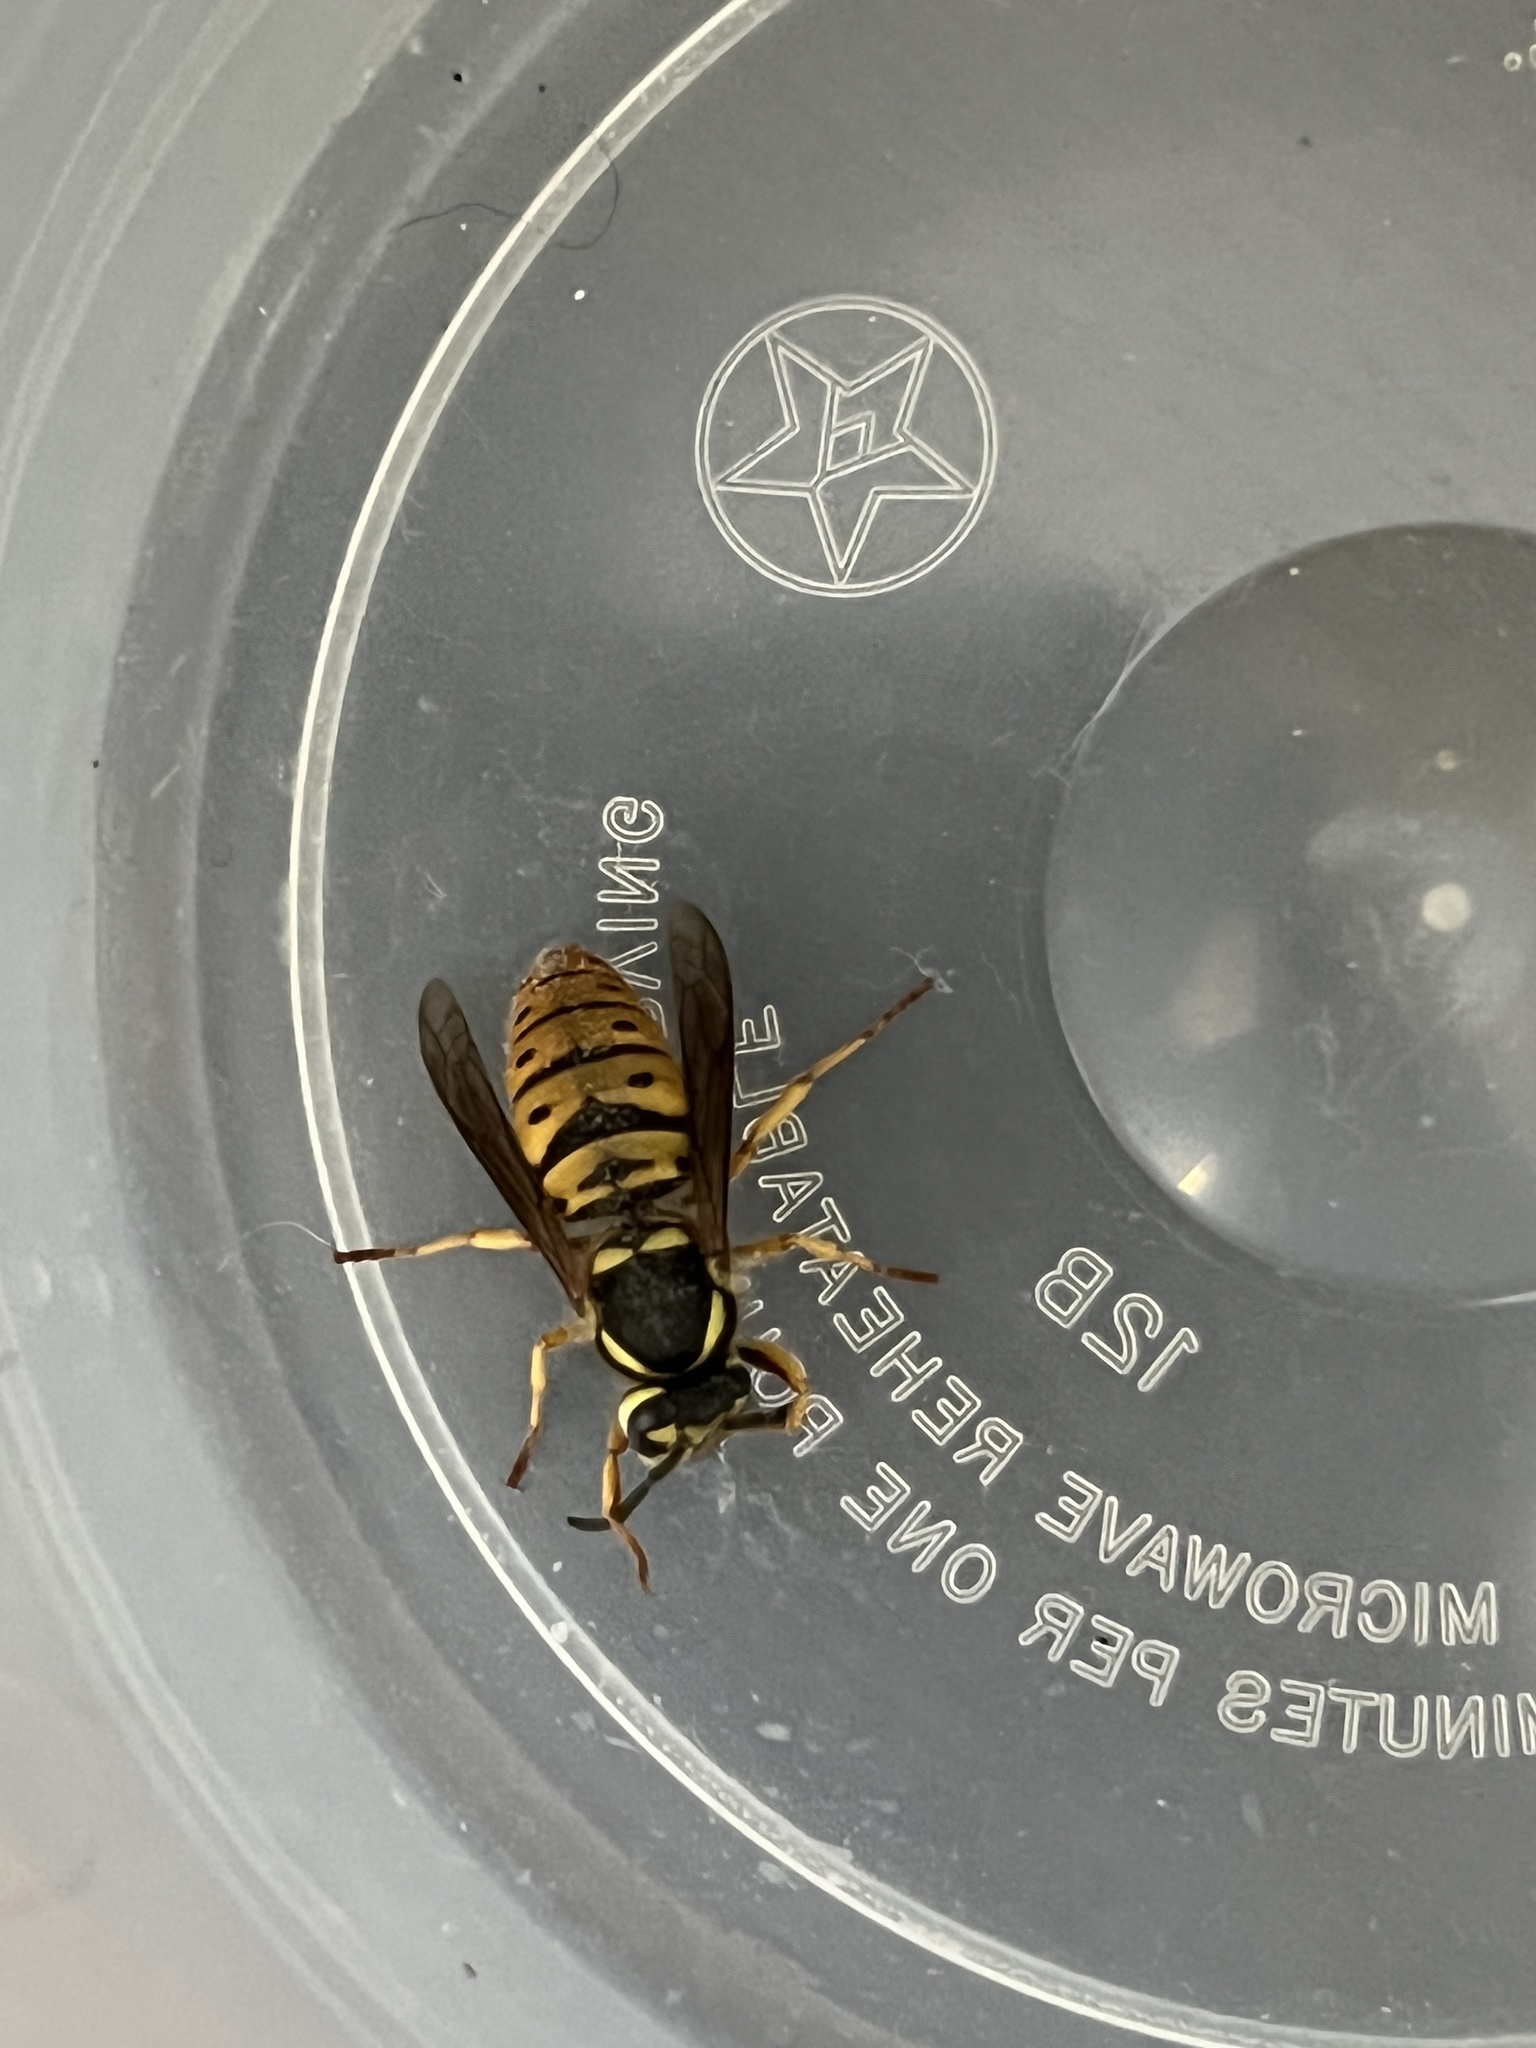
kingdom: Animalia
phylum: Arthropoda
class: Insecta
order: Hymenoptera
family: Vespidae
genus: Vespula
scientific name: Vespula maculifrons
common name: Eastern yellowjacket
